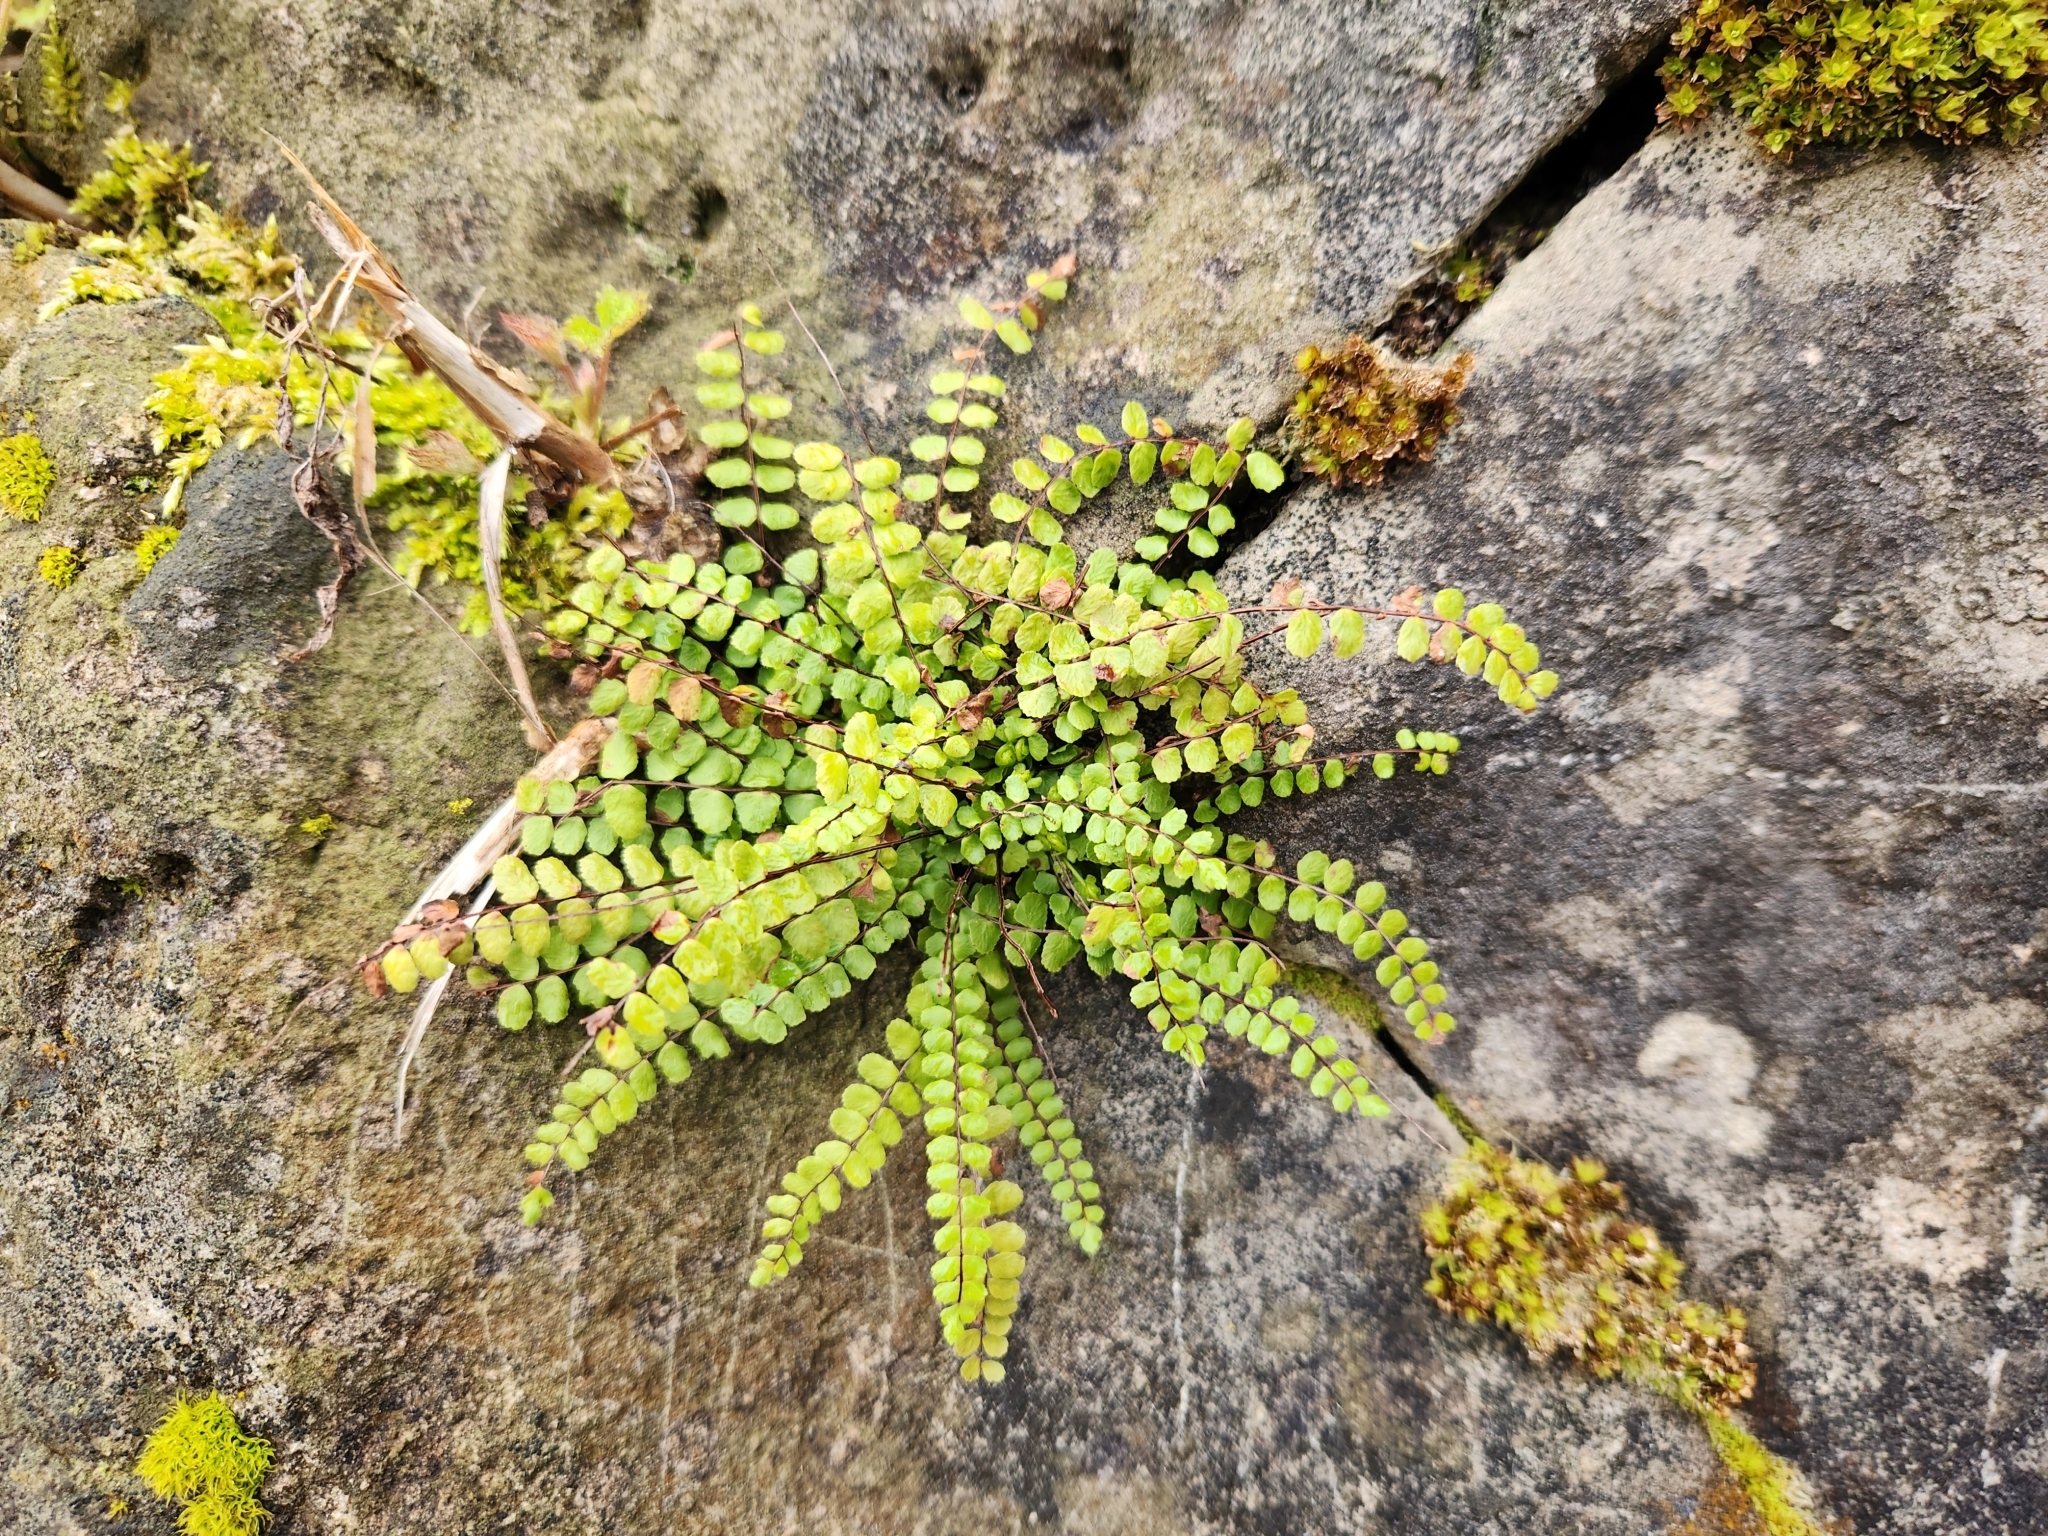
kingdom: Plantae
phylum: Tracheophyta
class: Polypodiopsida
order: Polypodiales
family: Aspleniaceae
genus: Asplenium
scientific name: Asplenium trichomanes
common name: Maidenhair spleenwort
